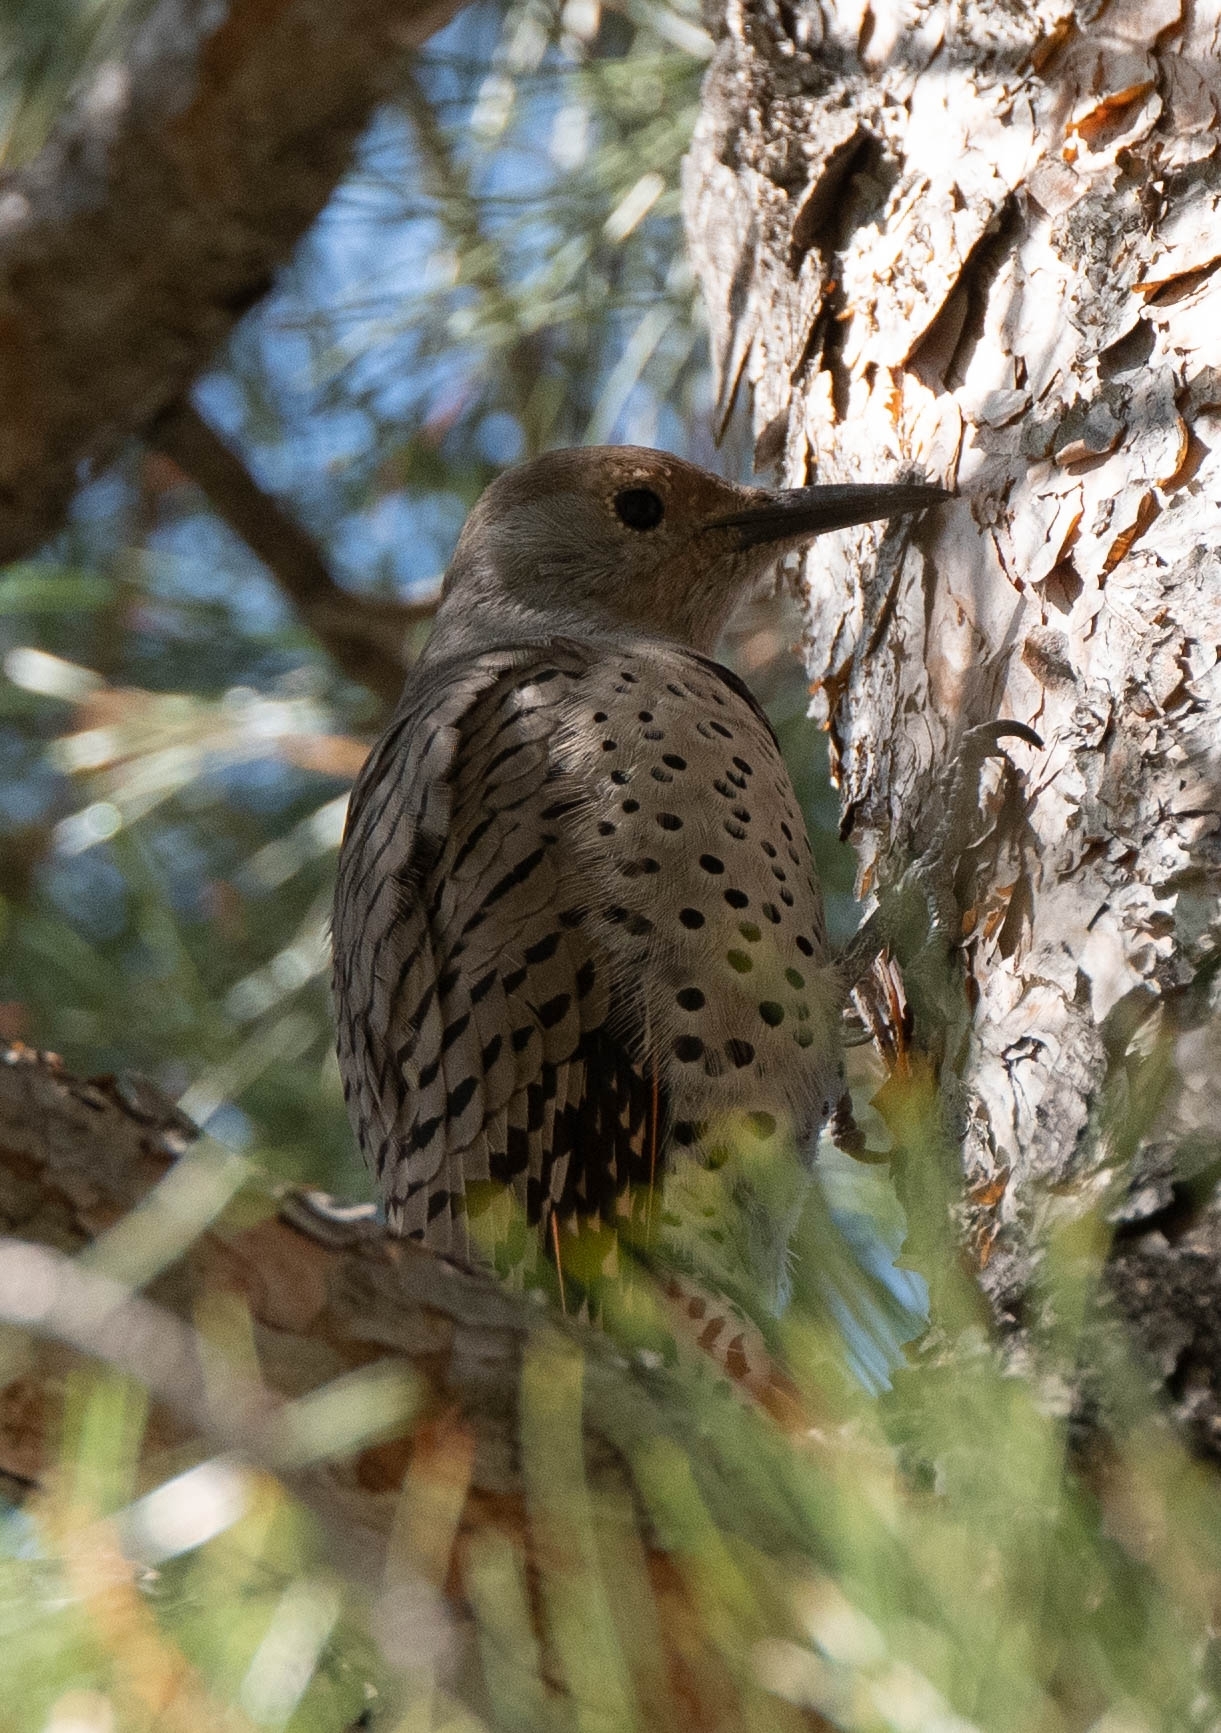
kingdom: Animalia
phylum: Chordata
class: Aves
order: Piciformes
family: Picidae
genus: Colaptes
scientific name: Colaptes auratus
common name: Northern flicker
